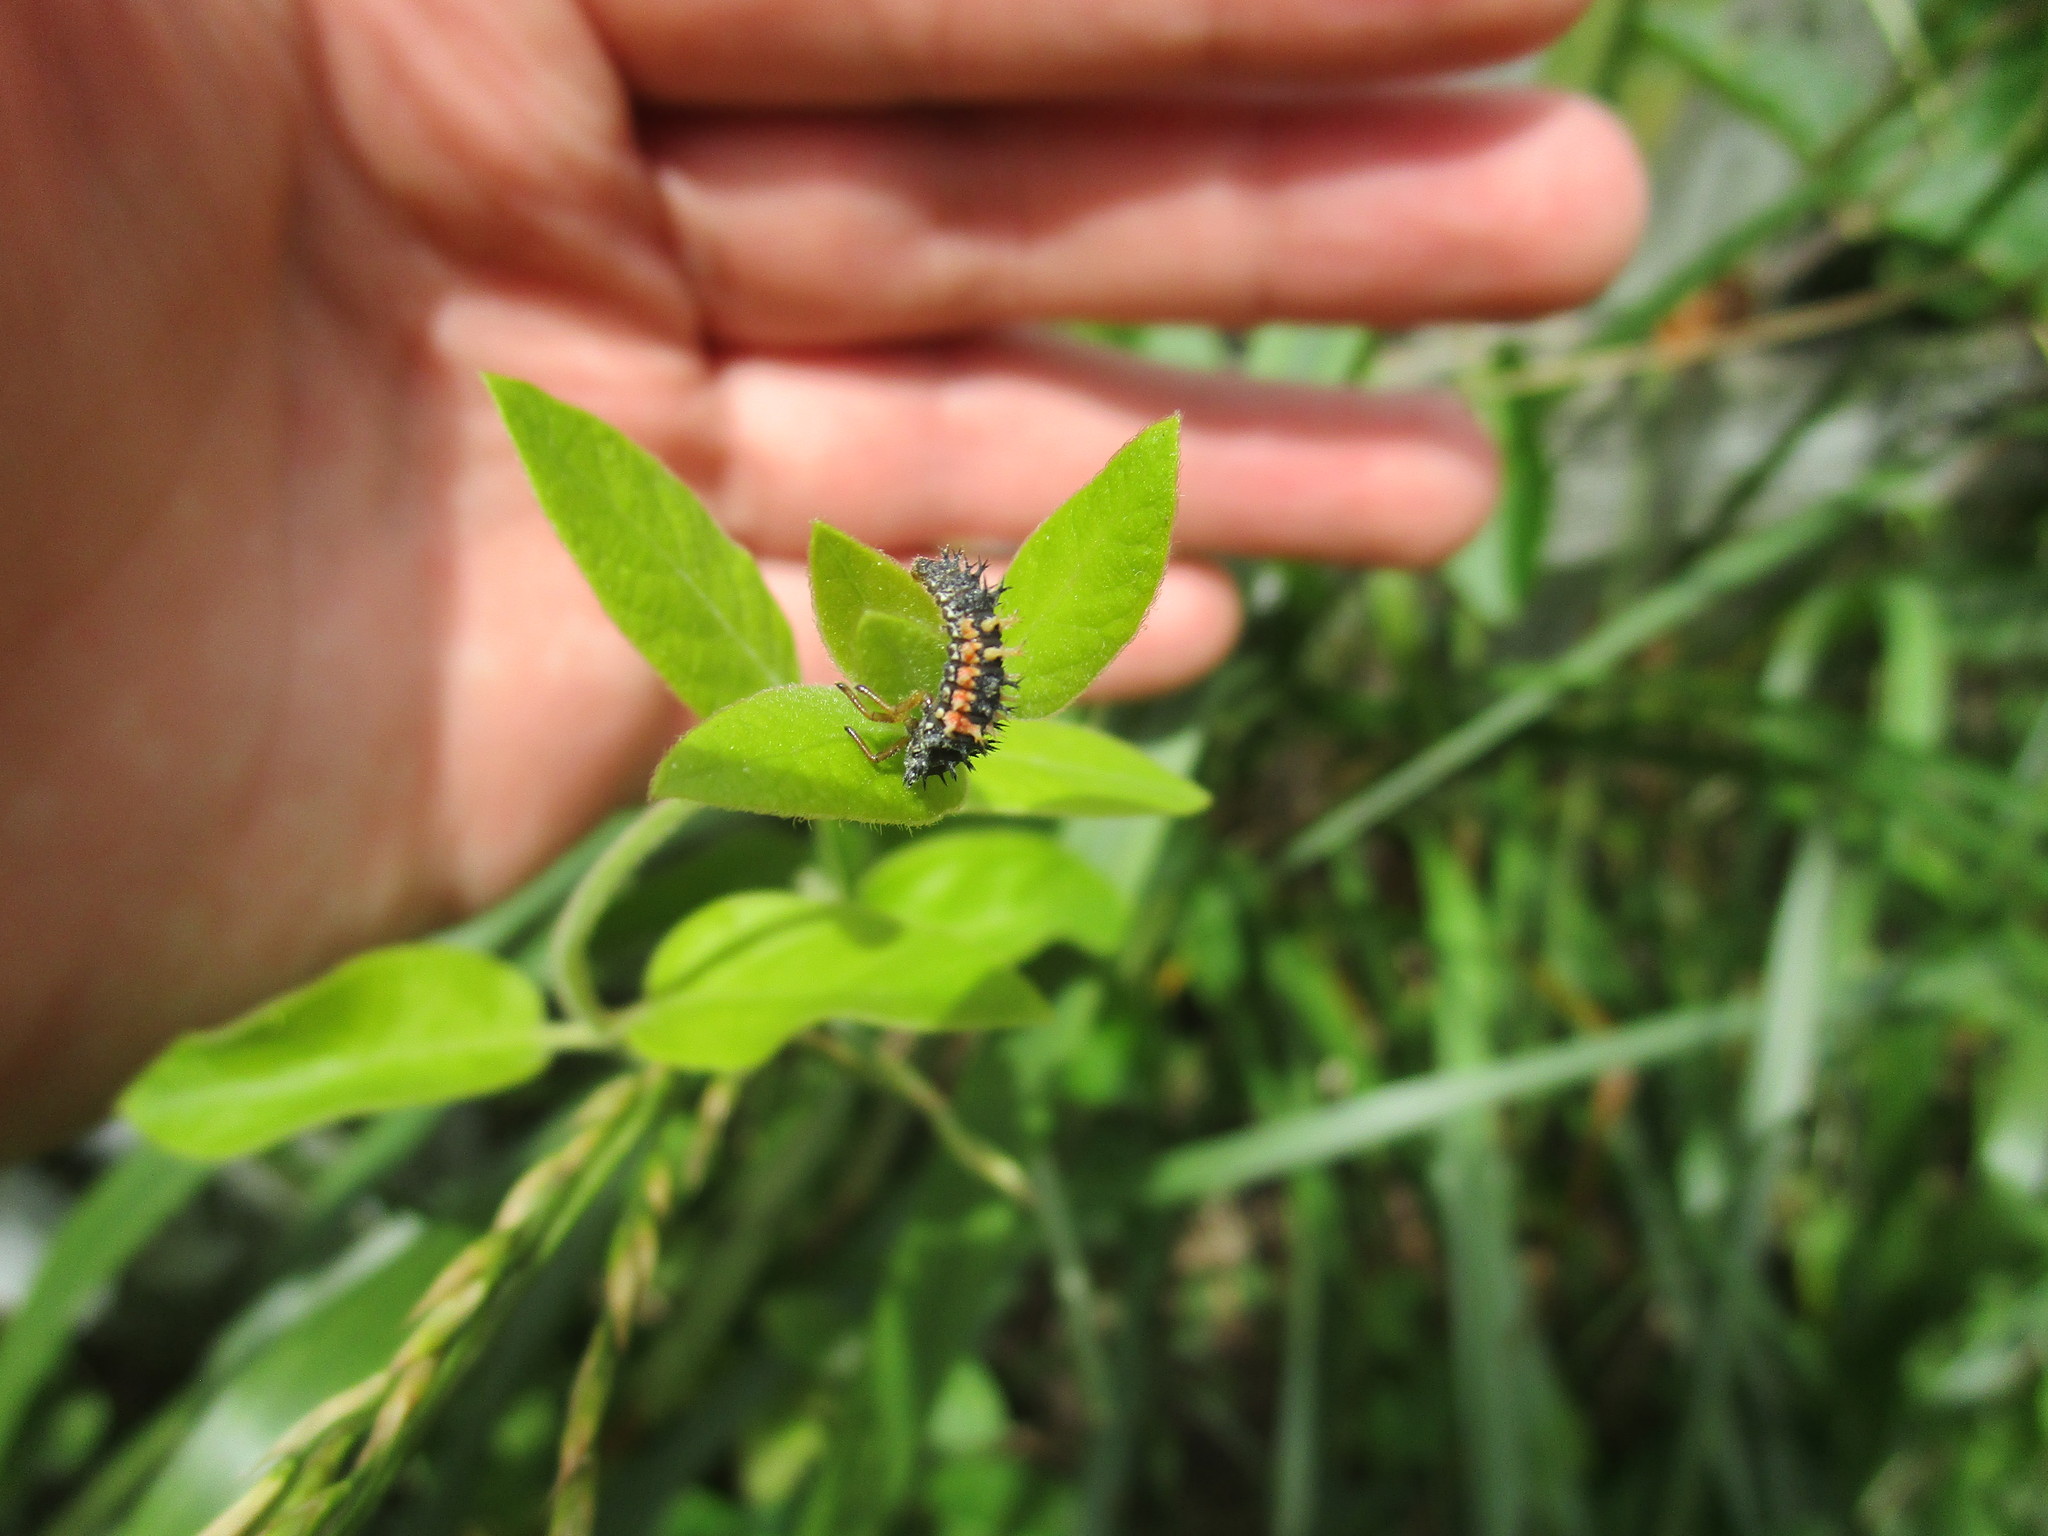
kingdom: Animalia
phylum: Arthropoda
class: Insecta
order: Coleoptera
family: Coccinellidae
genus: Harmonia
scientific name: Harmonia axyridis
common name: Harlequin ladybird
